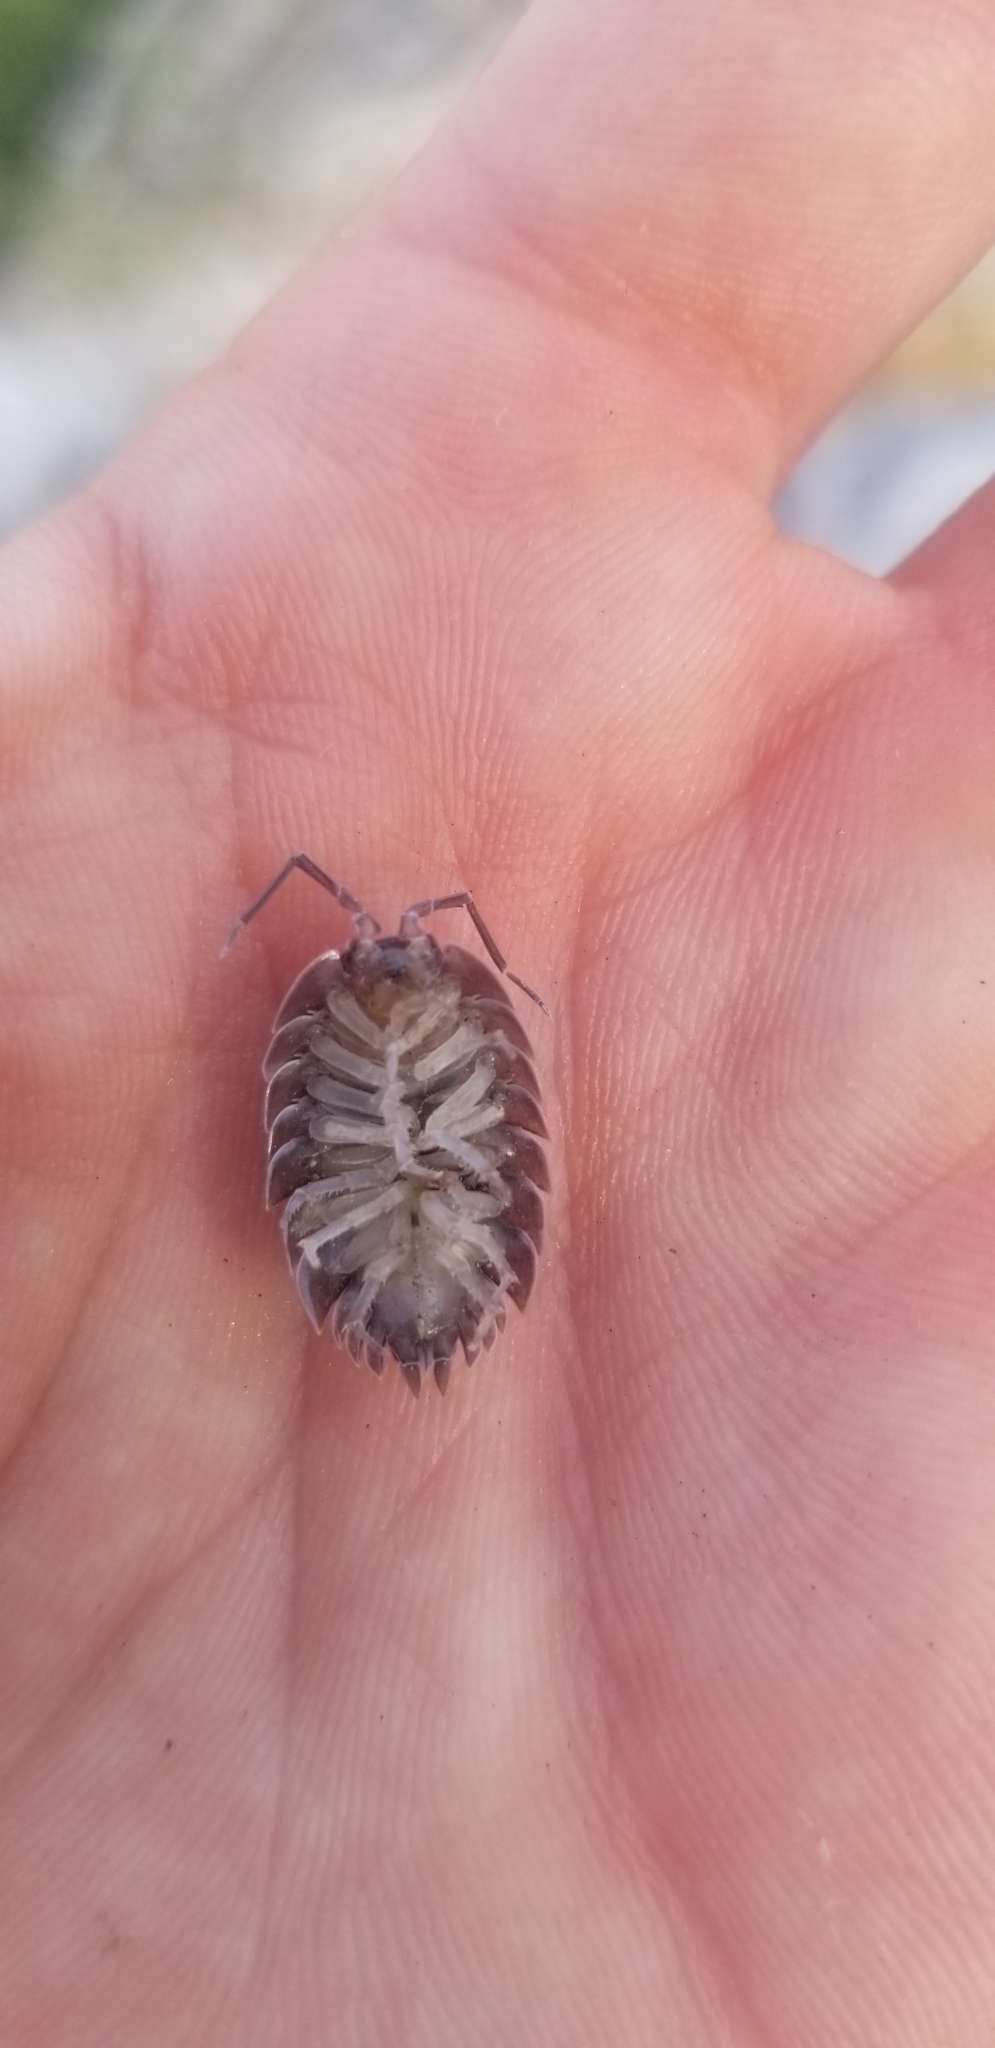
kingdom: Animalia
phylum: Arthropoda
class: Malacostraca
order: Isopoda
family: Porcellionidae
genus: Porcellio
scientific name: Porcellio obsoletus
